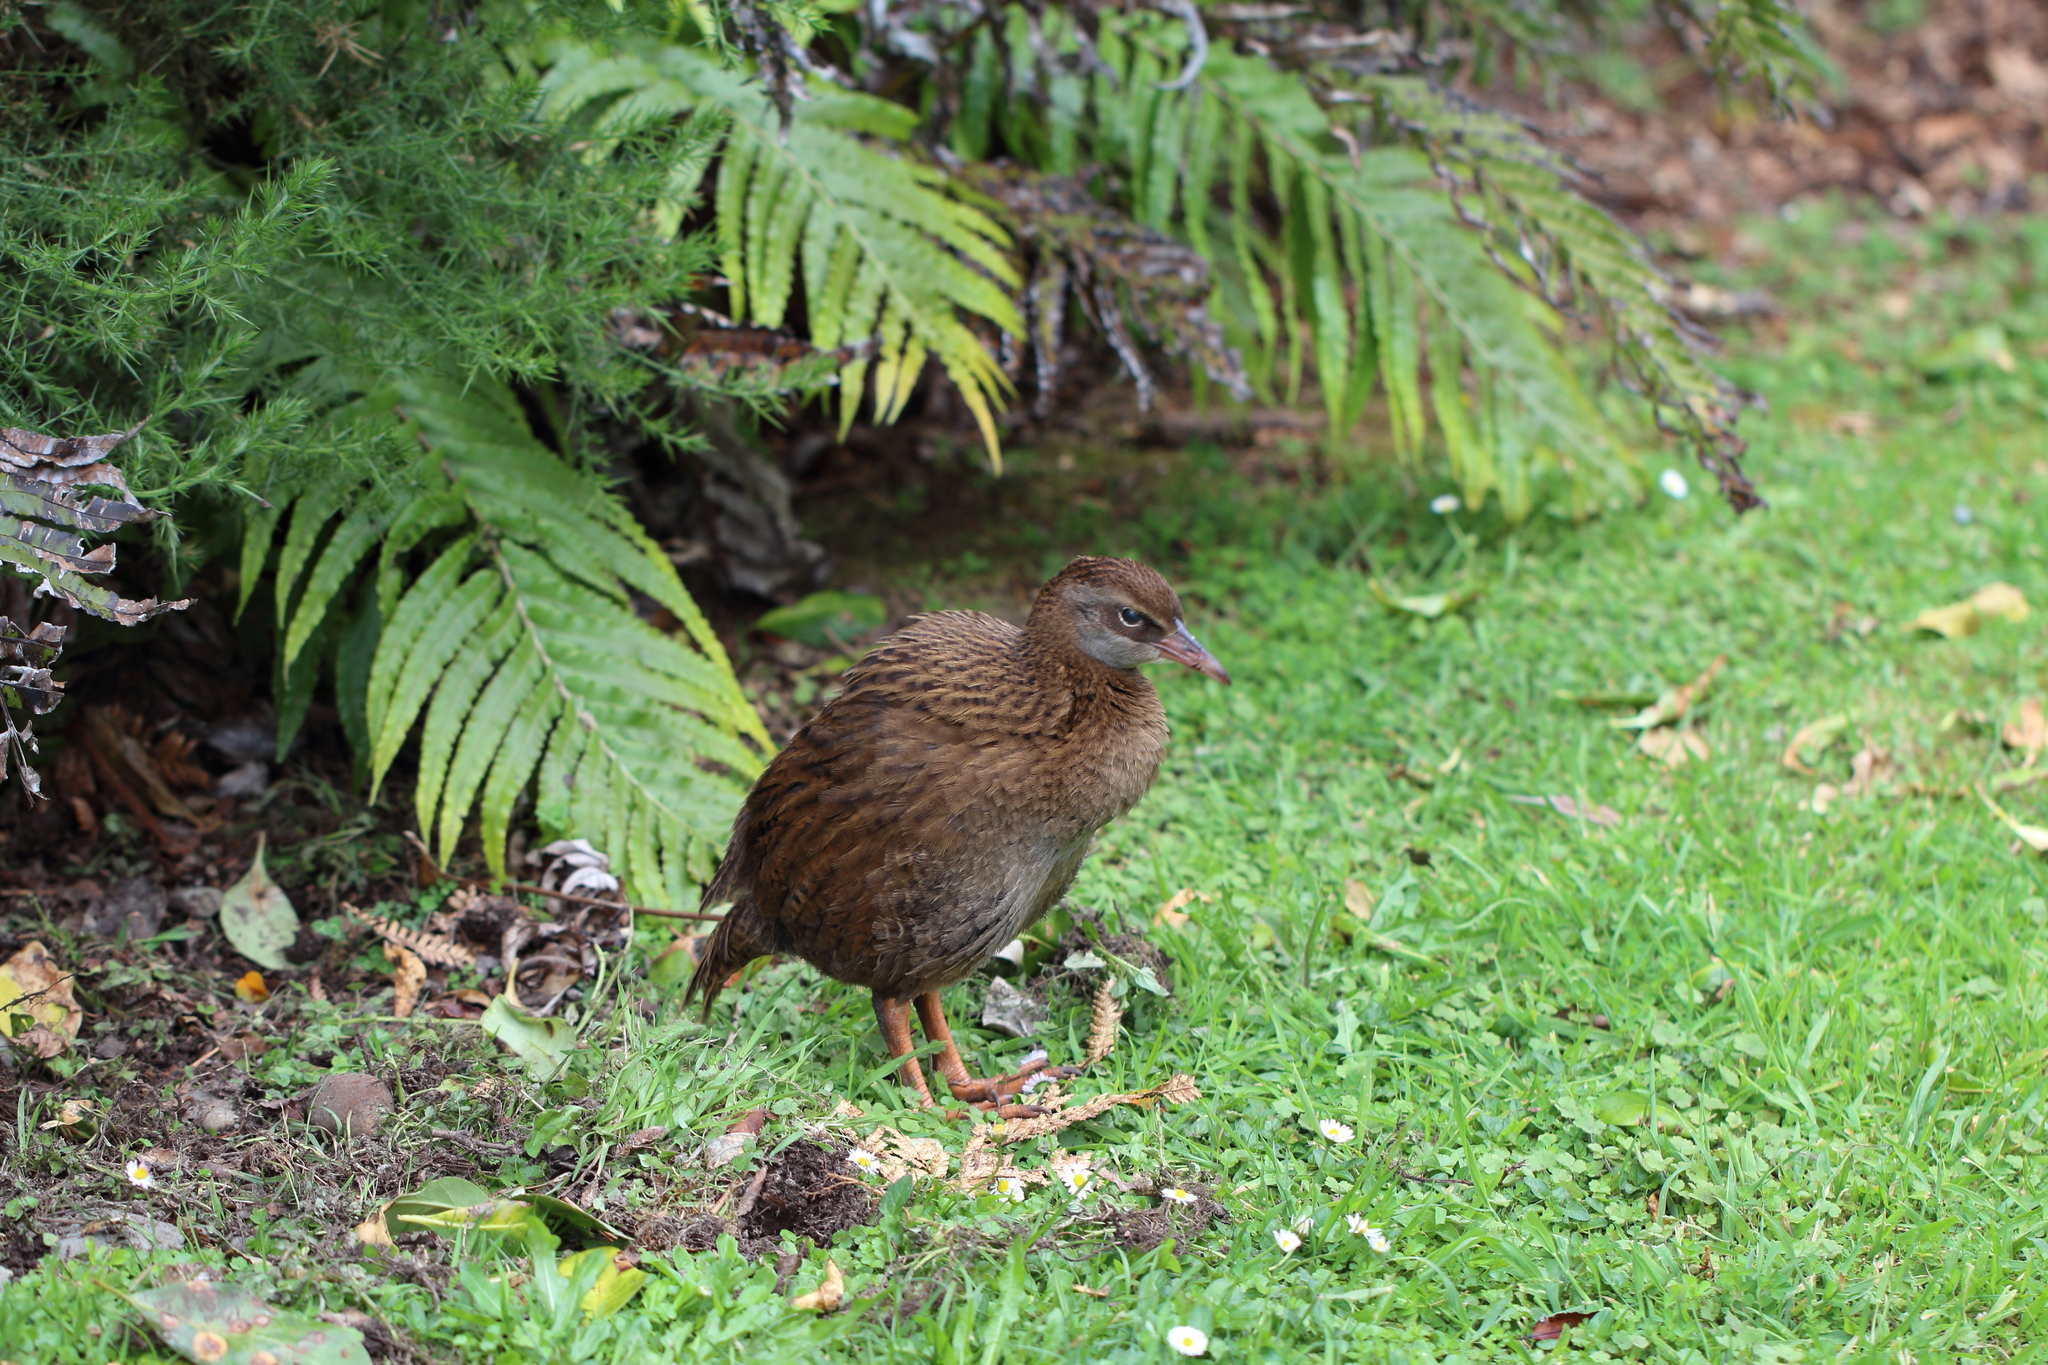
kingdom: Animalia
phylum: Chordata
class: Aves
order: Gruiformes
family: Rallidae
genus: Gallirallus
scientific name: Gallirallus australis
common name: Weka
